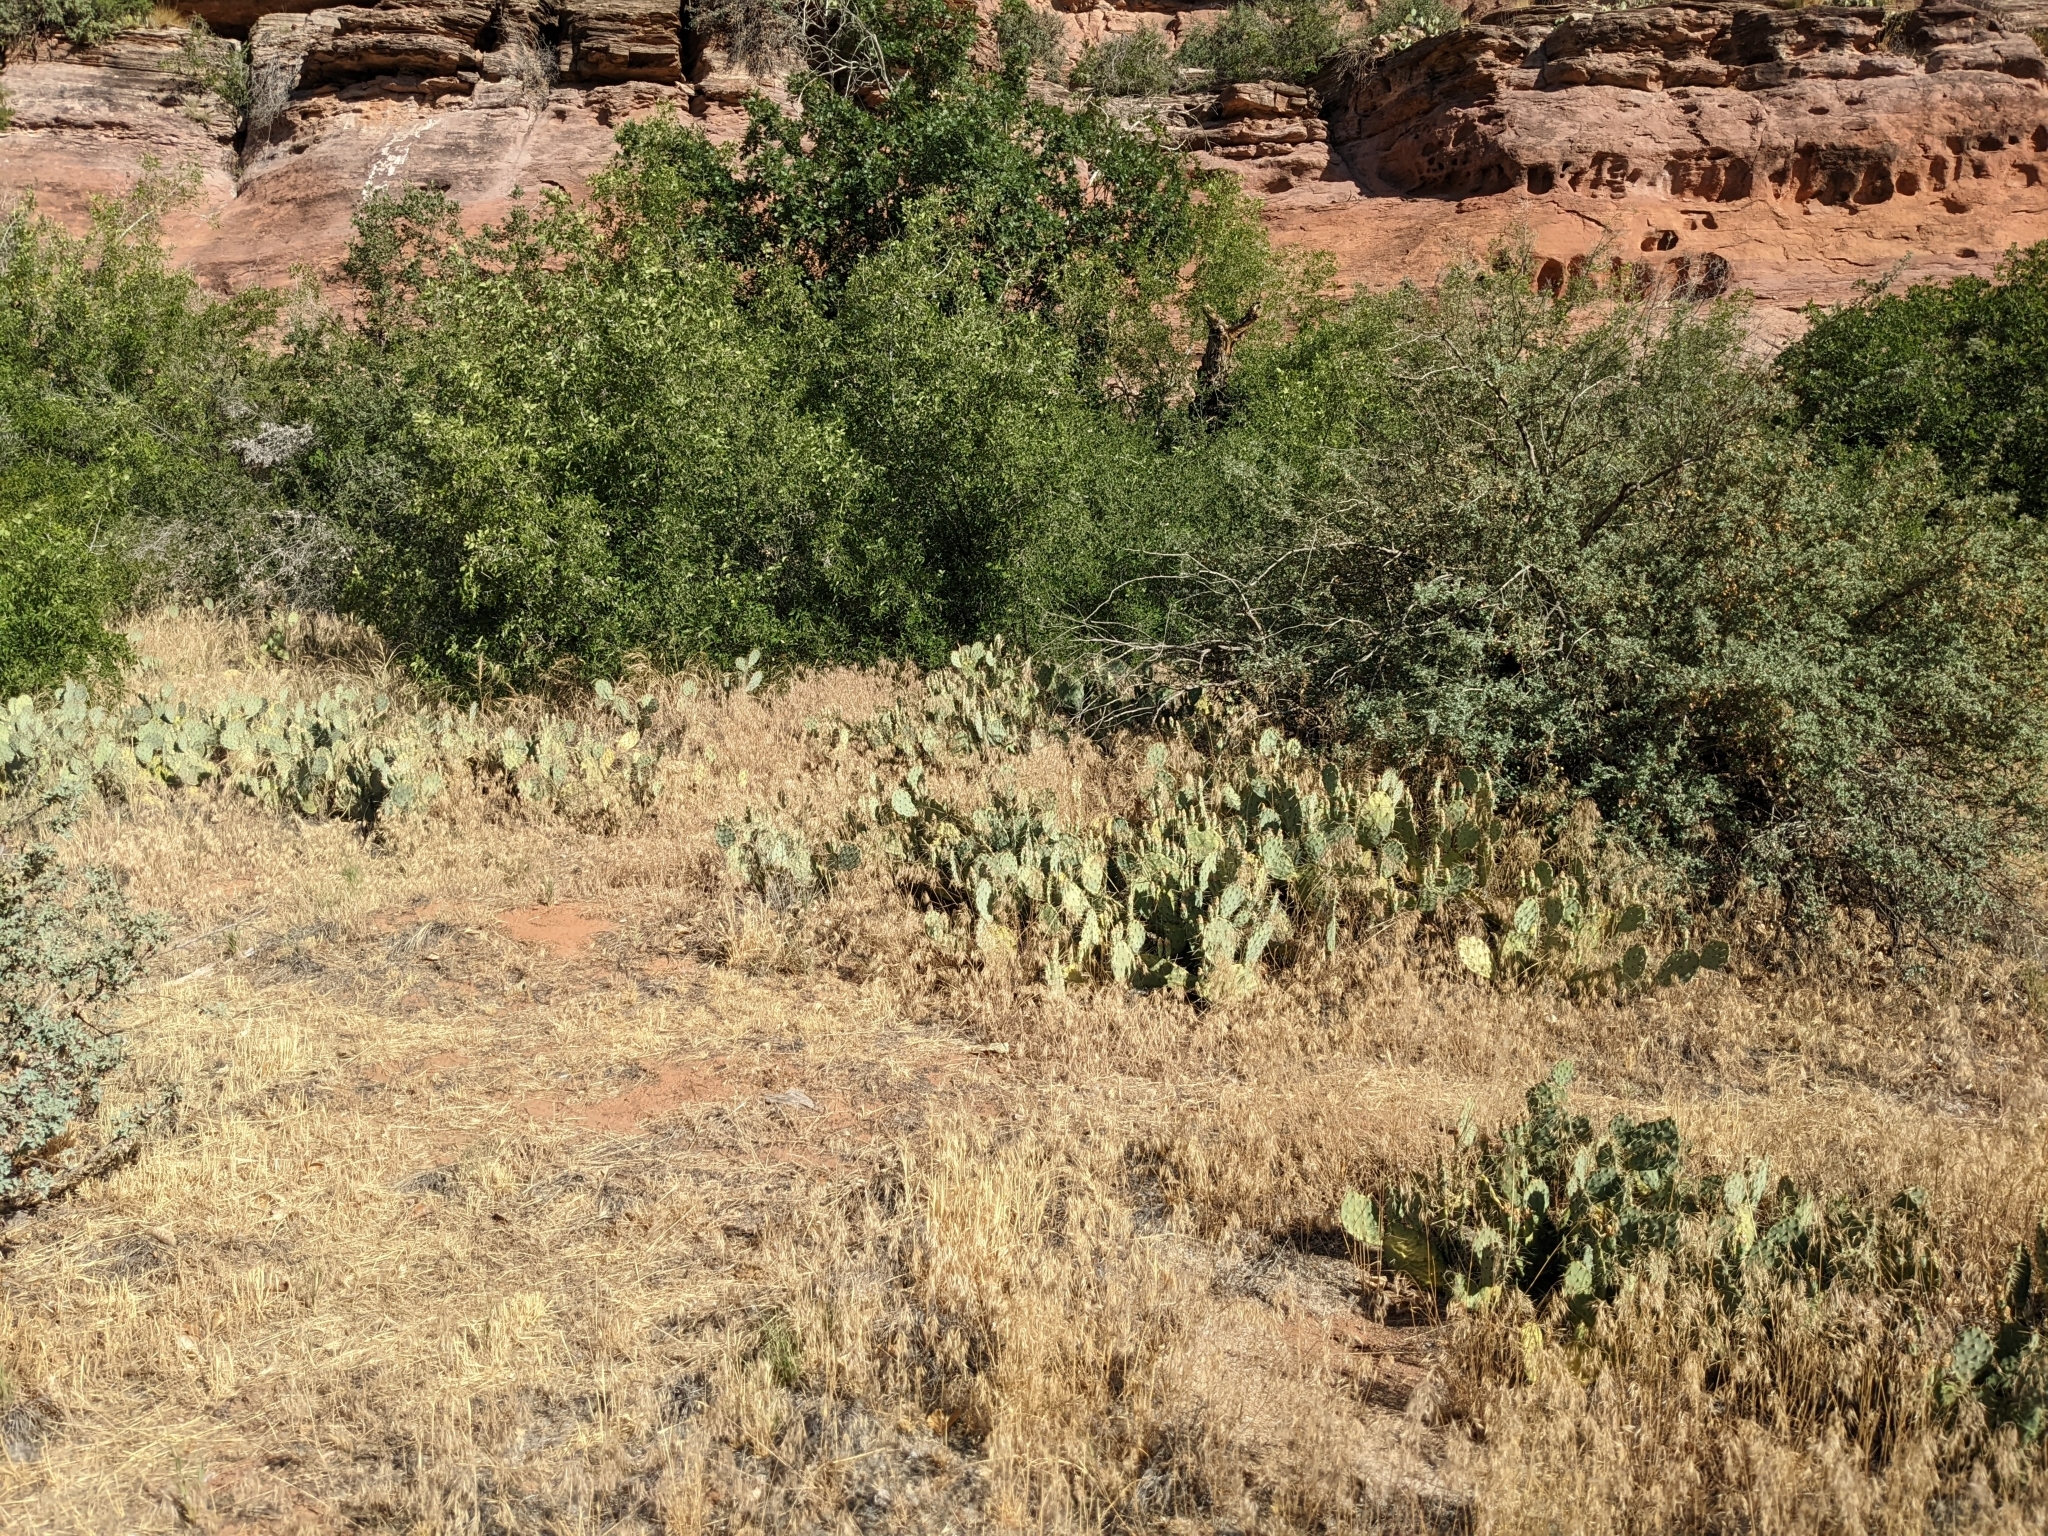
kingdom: Plantae
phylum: Tracheophyta
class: Magnoliopsida
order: Caryophyllales
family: Cactaceae
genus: Opuntia
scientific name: Opuntia phaeacantha
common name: New mexico prickly-pear
